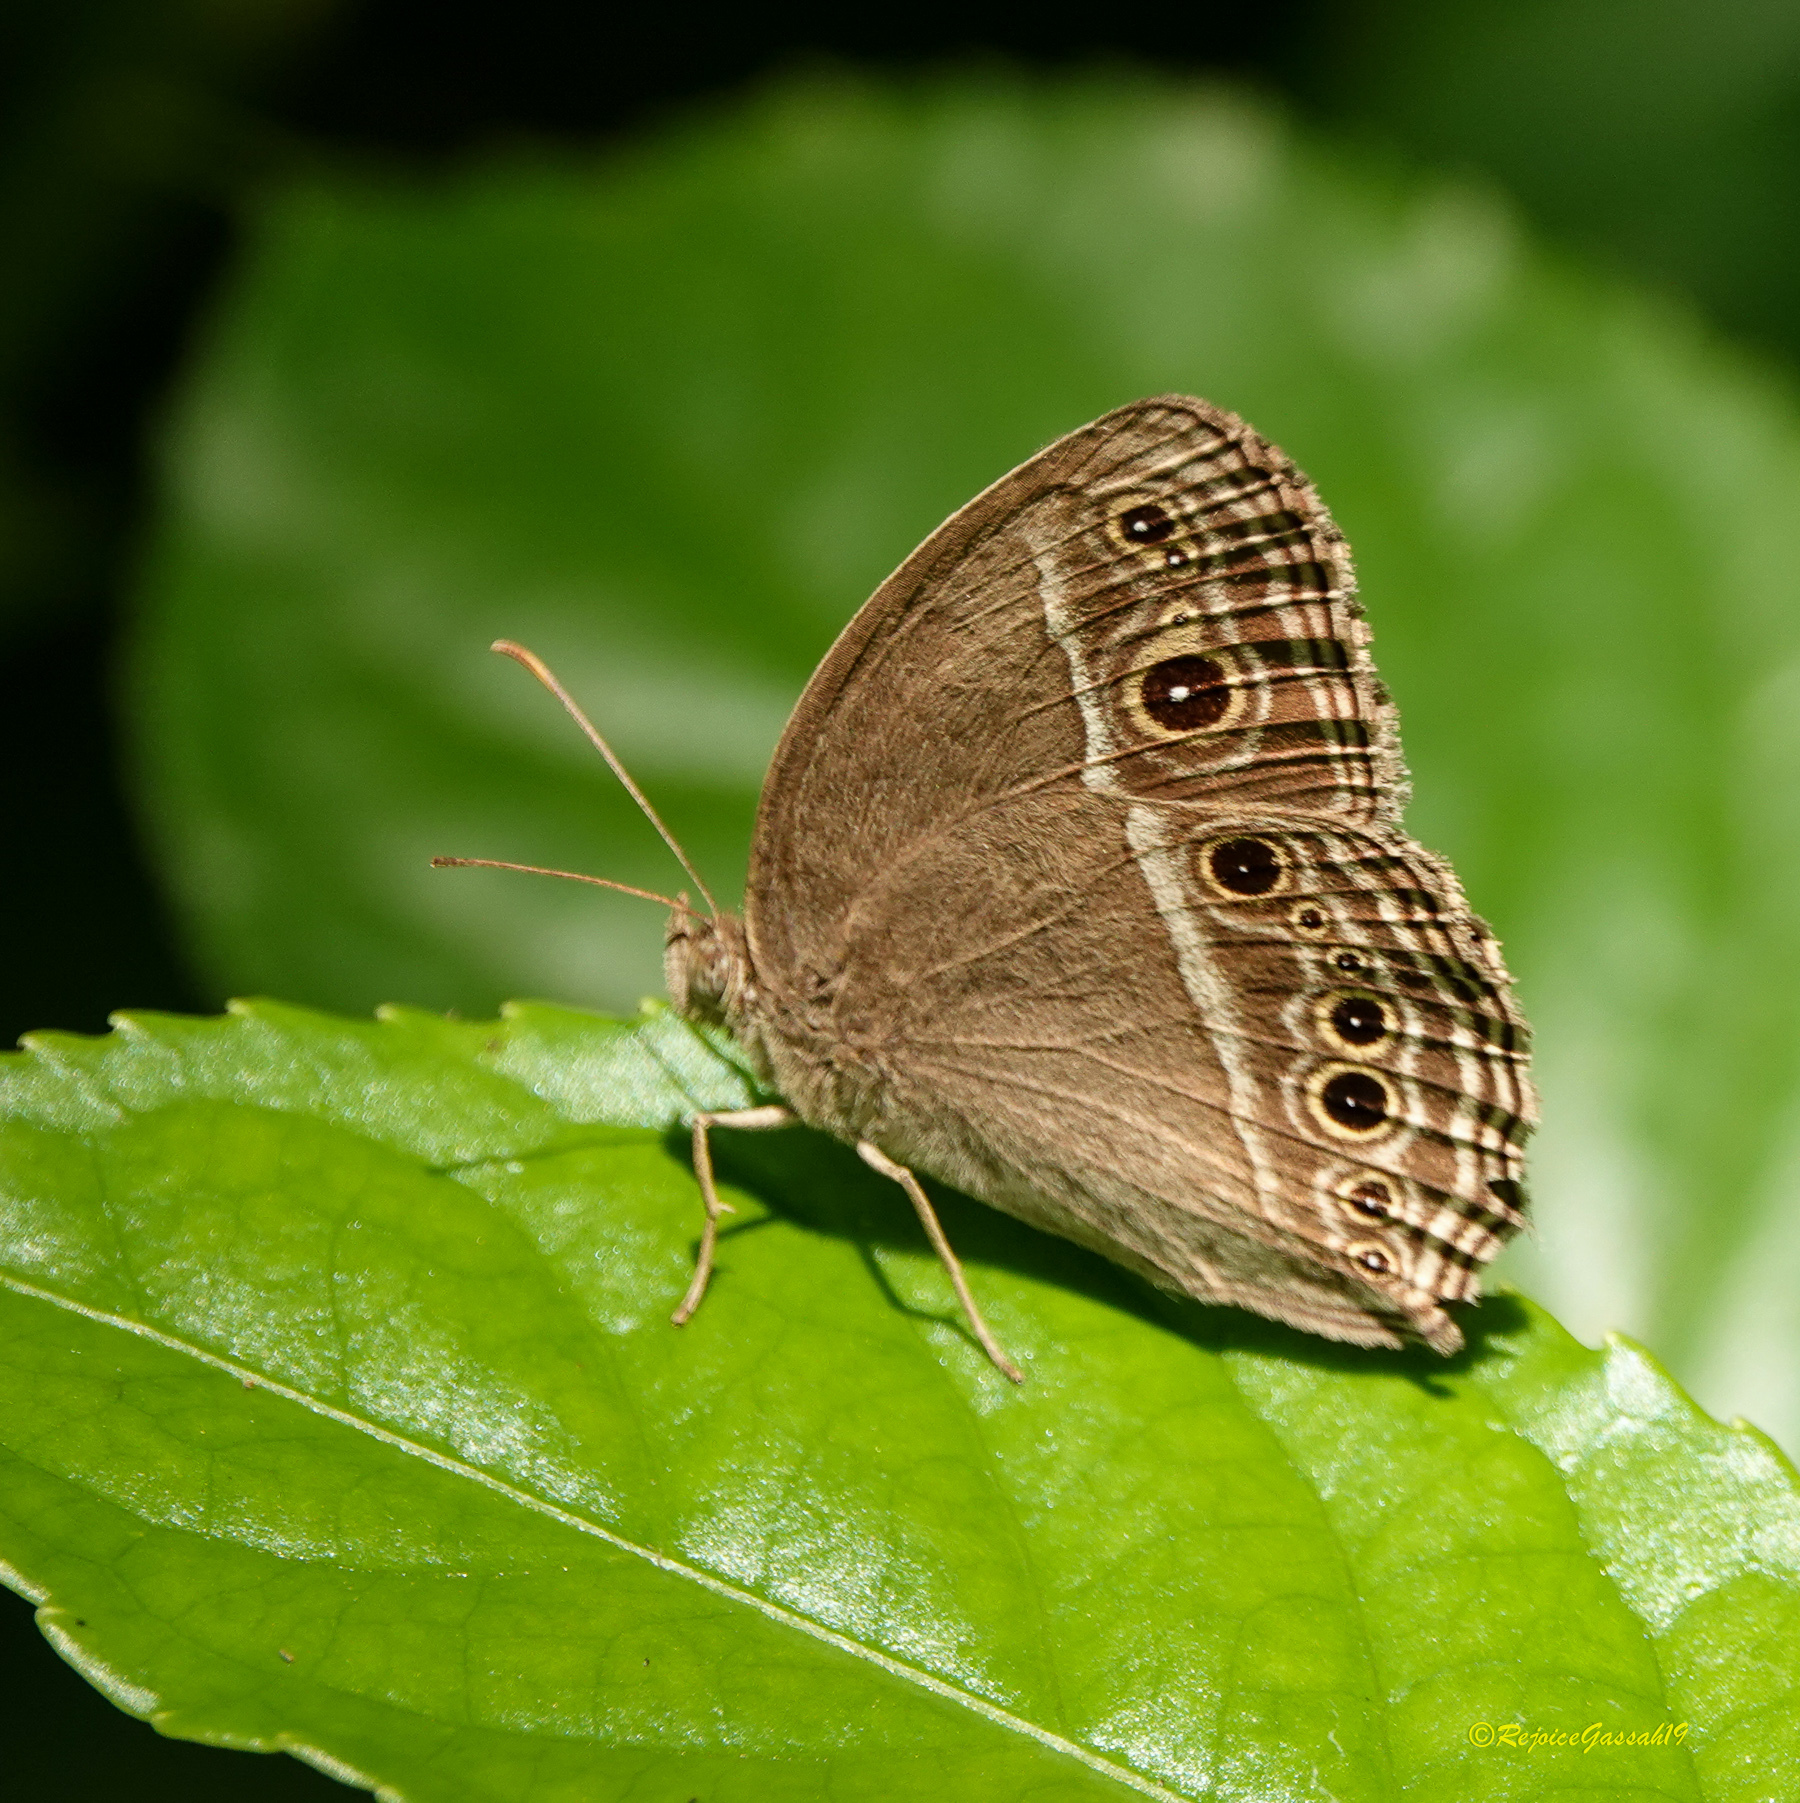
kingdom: Animalia
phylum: Arthropoda
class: Insecta
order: Lepidoptera
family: Nymphalidae
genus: Mycalesis
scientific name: Mycalesis mineus
